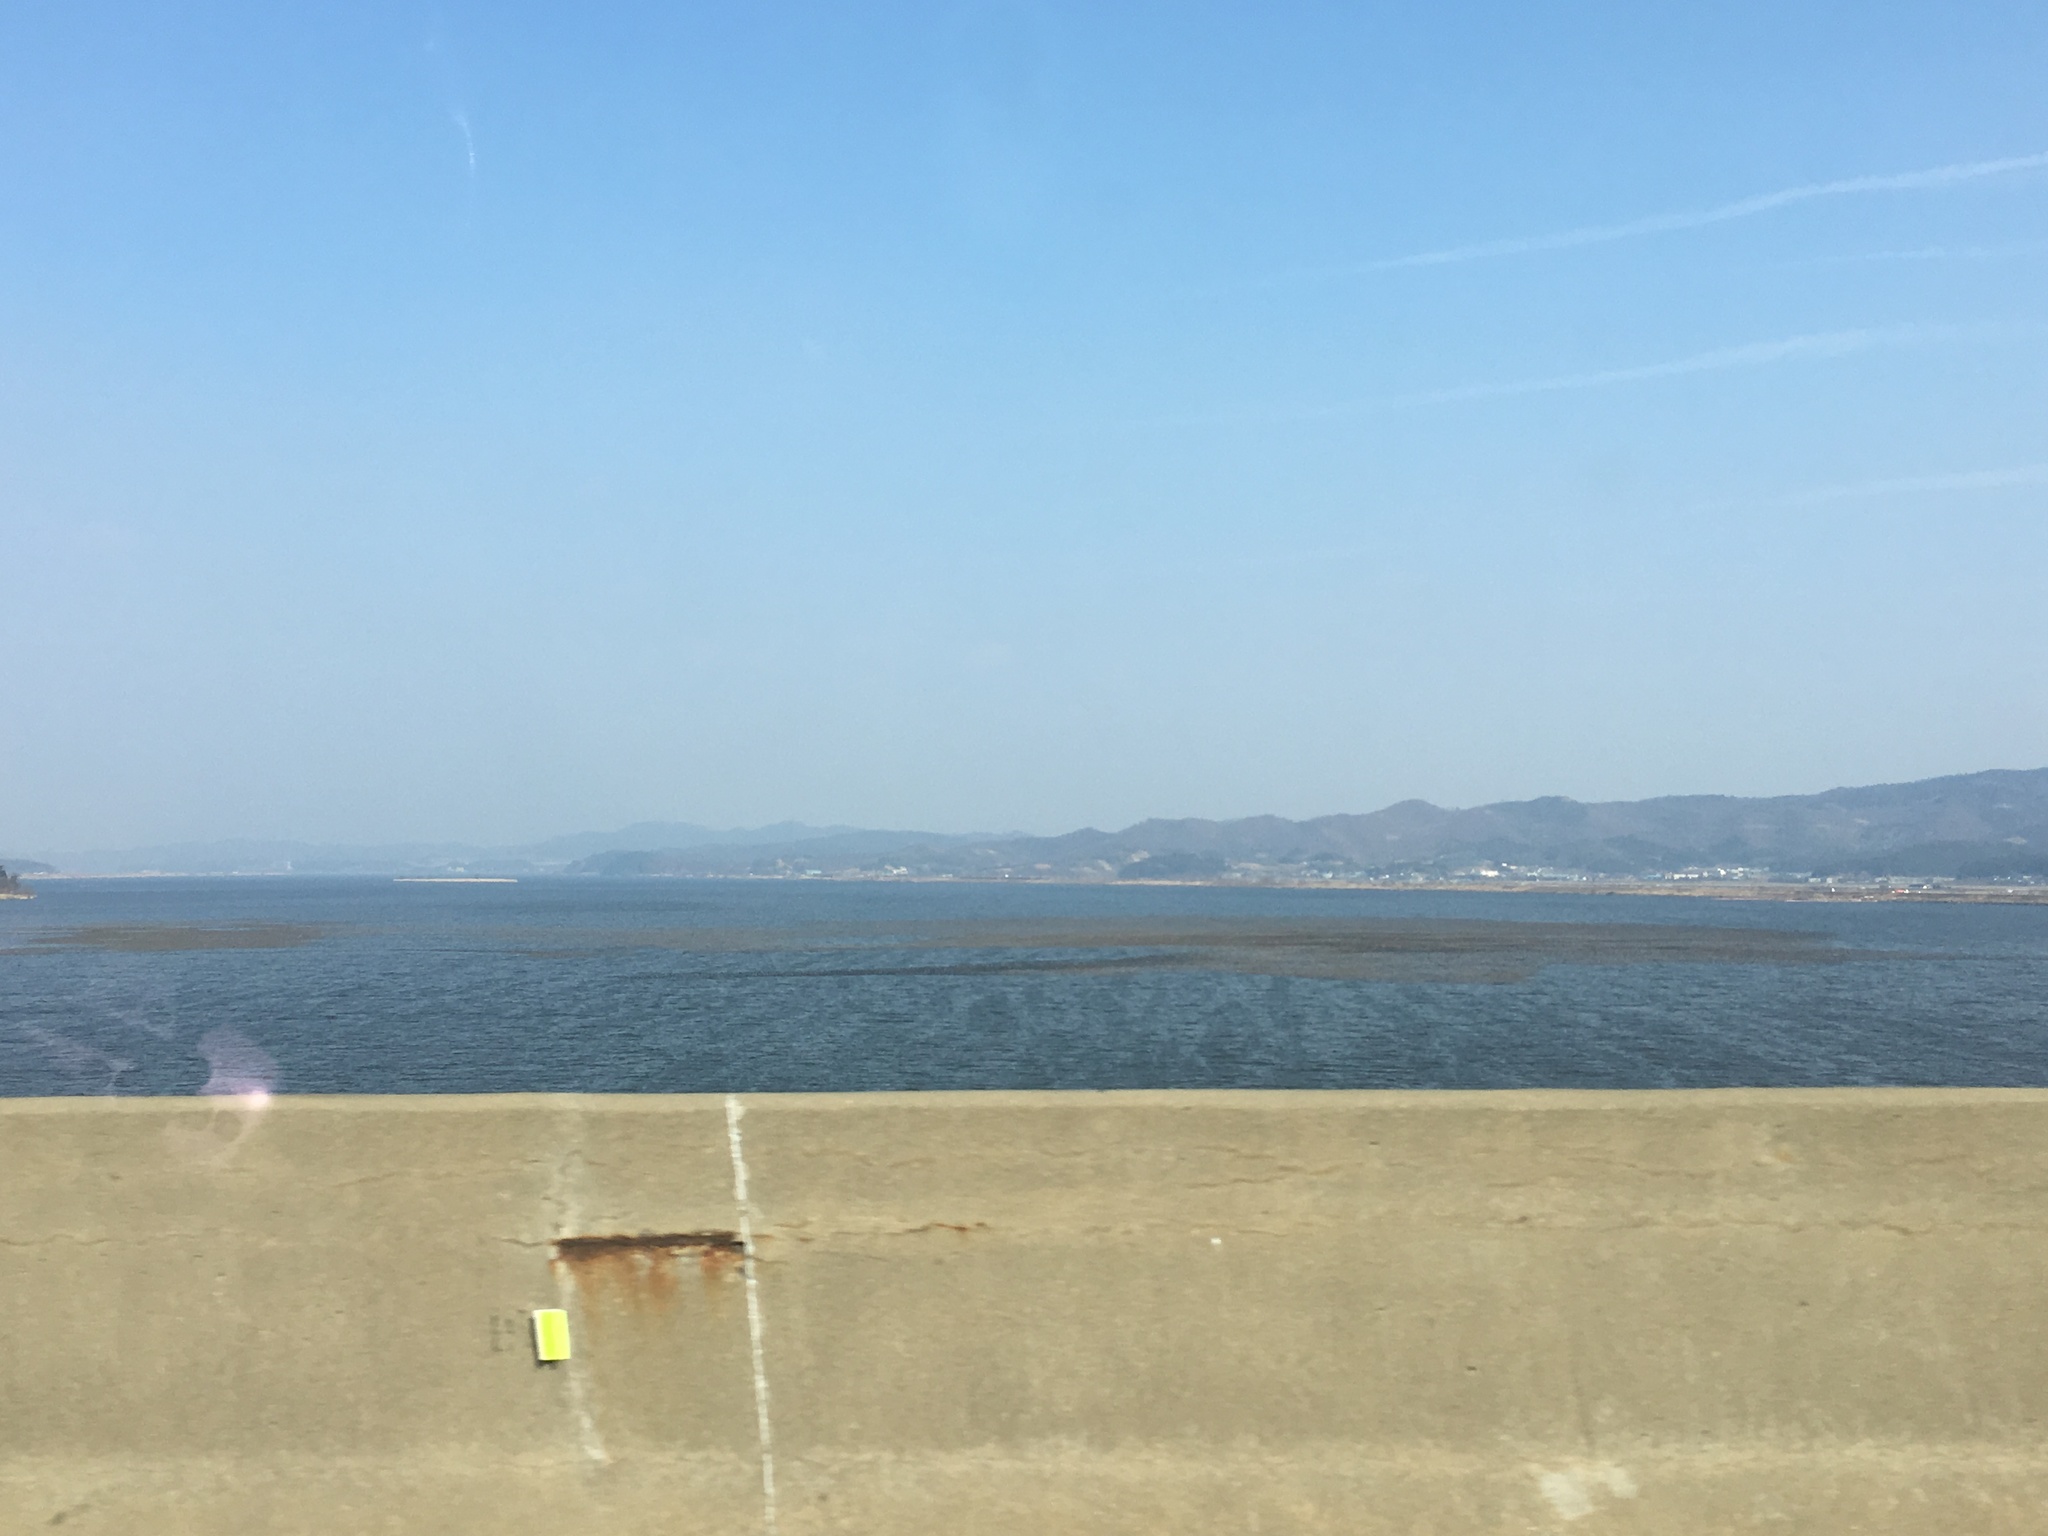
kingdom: Animalia
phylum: Chordata
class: Aves
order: Anseriformes
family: Anatidae
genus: Sibirionetta
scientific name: Sibirionetta formosa
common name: Baikal teal
